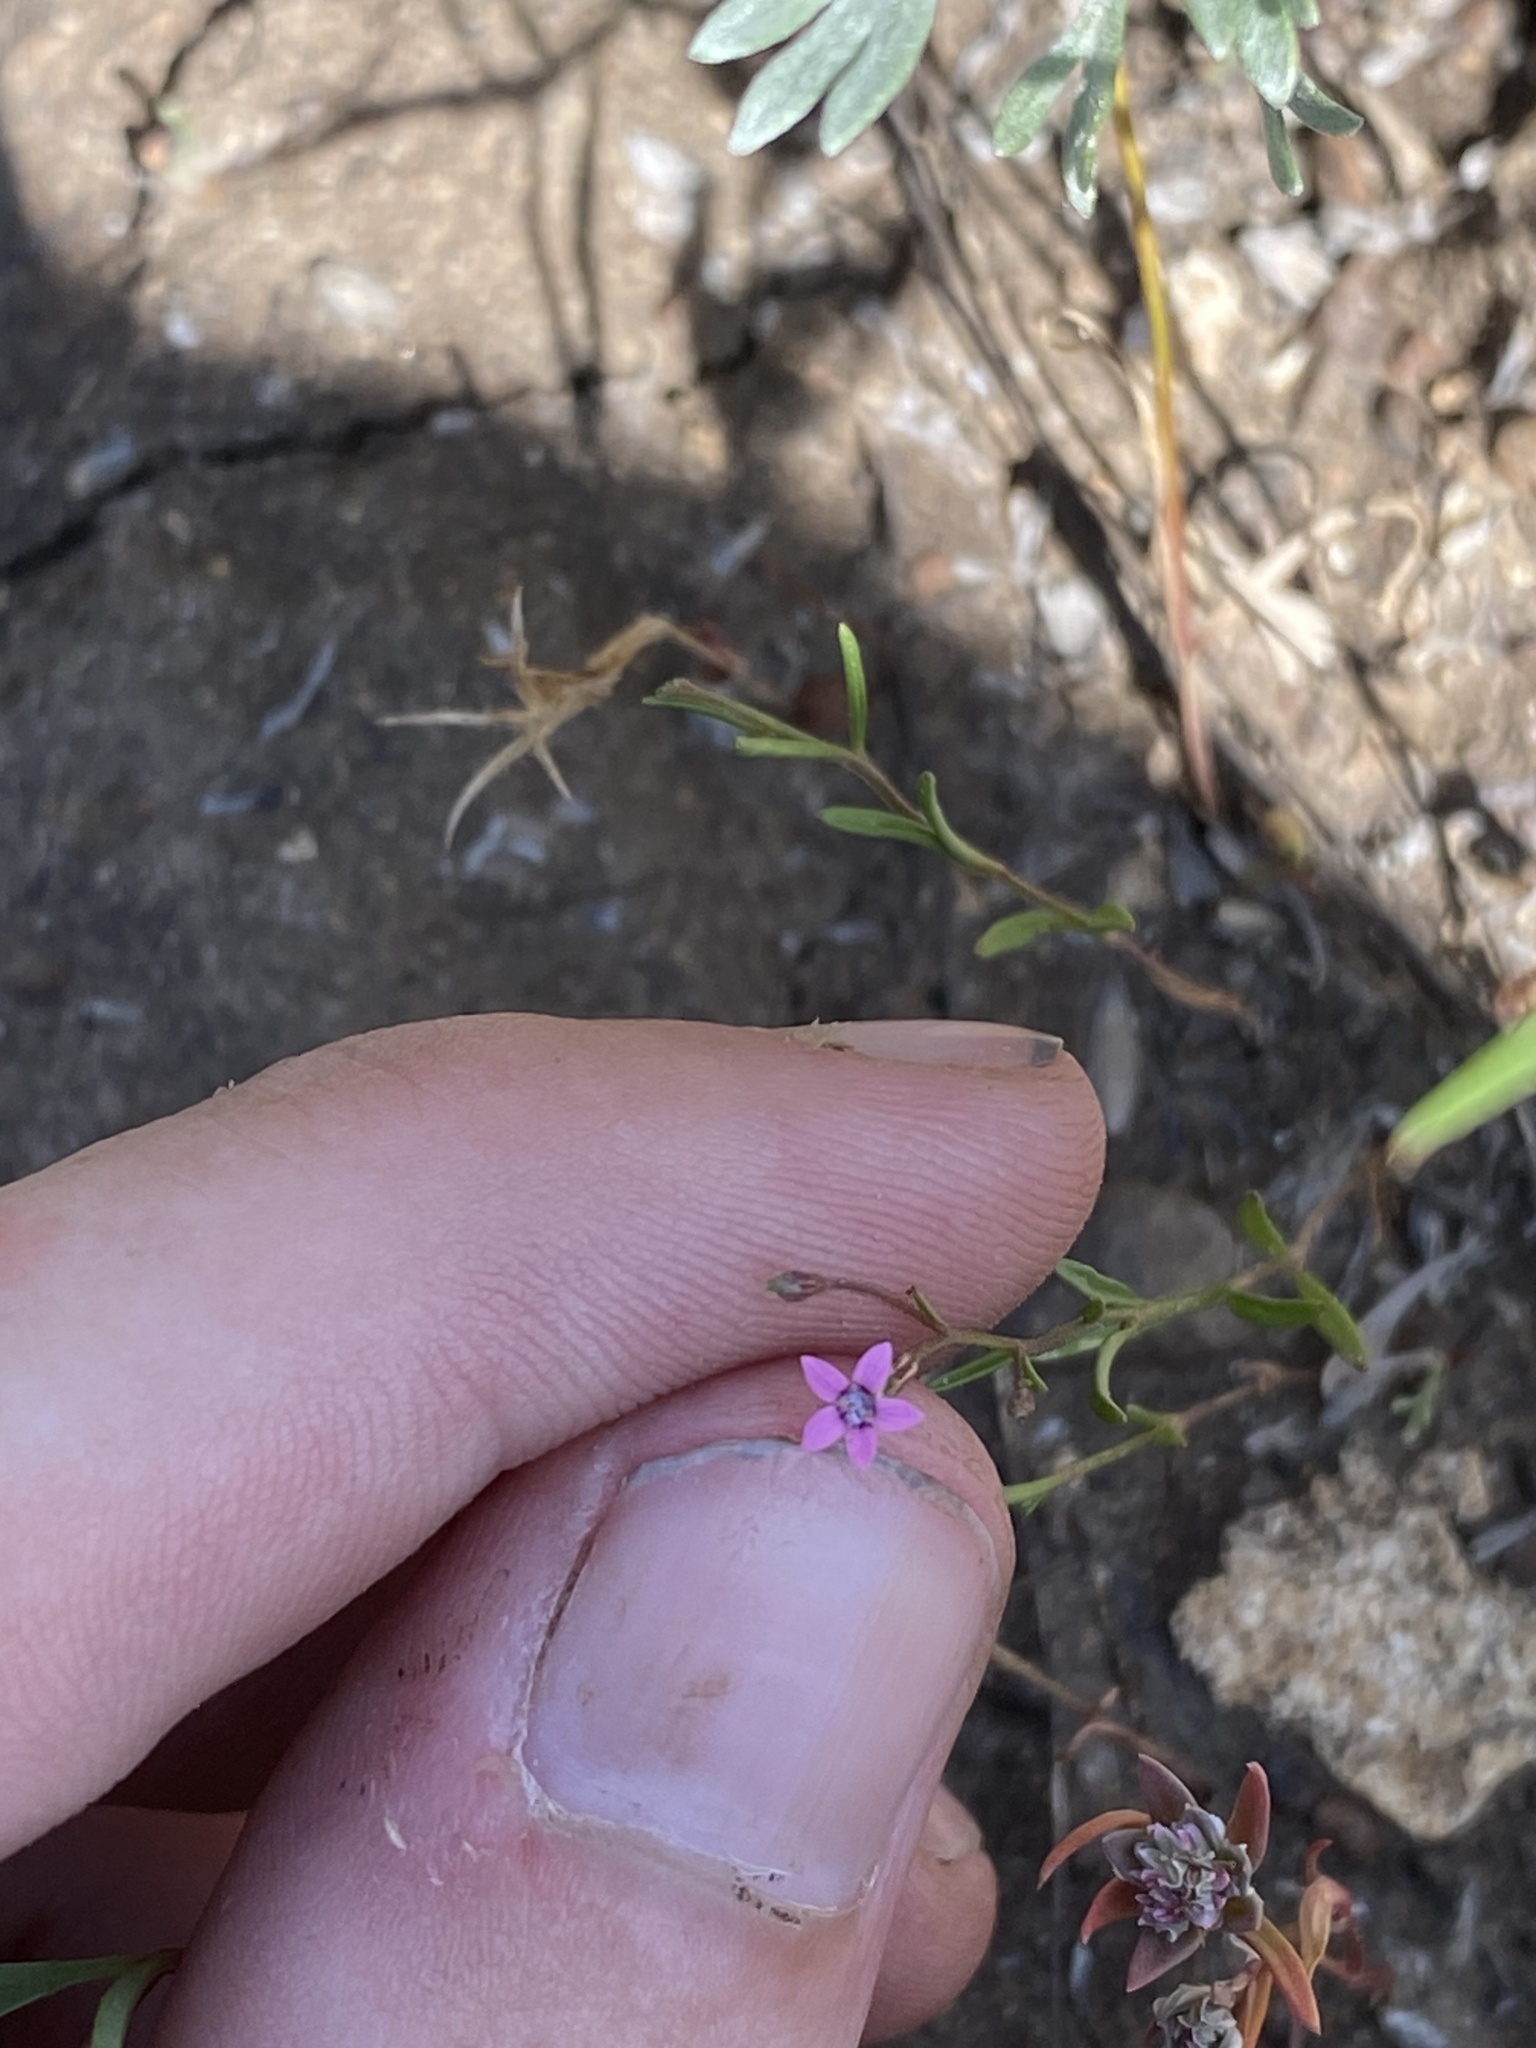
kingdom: Plantae
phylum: Tracheophyta
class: Magnoliopsida
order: Ericales
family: Polemoniaceae
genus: Navarretia
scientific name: Navarretia sinistra
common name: Alva day's pincushionplant
